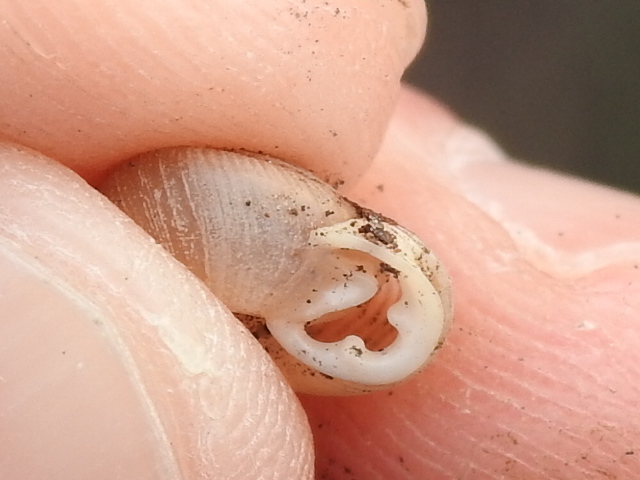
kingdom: Animalia
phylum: Mollusca
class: Gastropoda
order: Stylommatophora
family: Polygyridae
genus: Linisa
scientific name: Linisa texasiana
